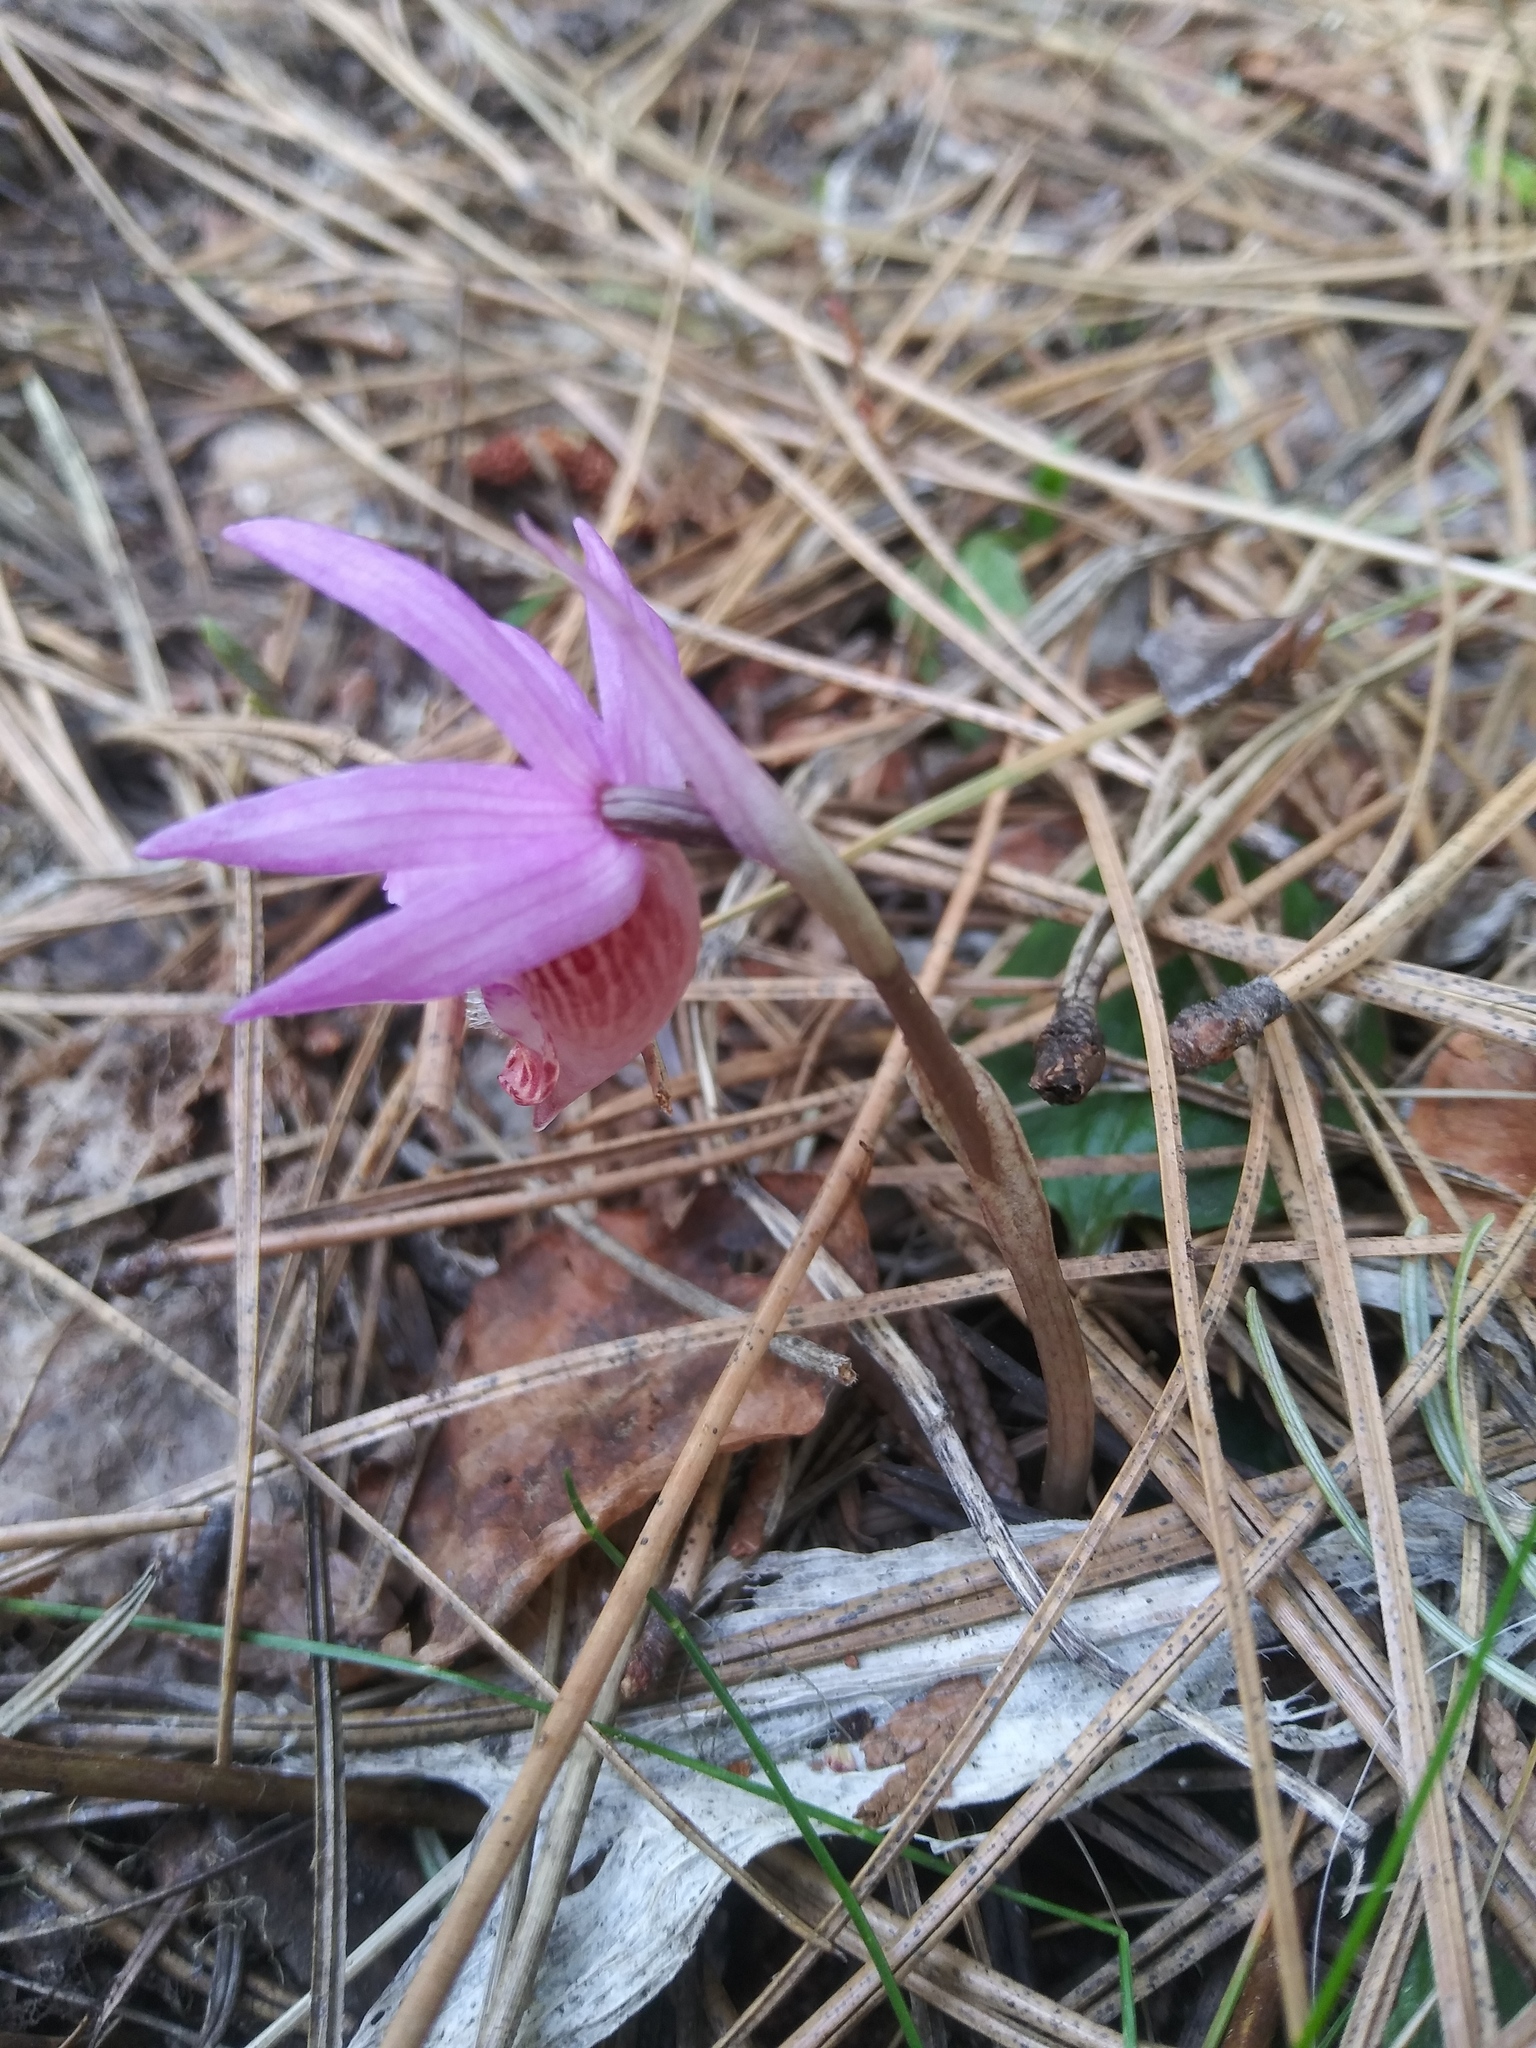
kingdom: Plantae
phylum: Tracheophyta
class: Liliopsida
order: Asparagales
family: Orchidaceae
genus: Calypso
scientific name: Calypso bulbosa
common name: Calypso
